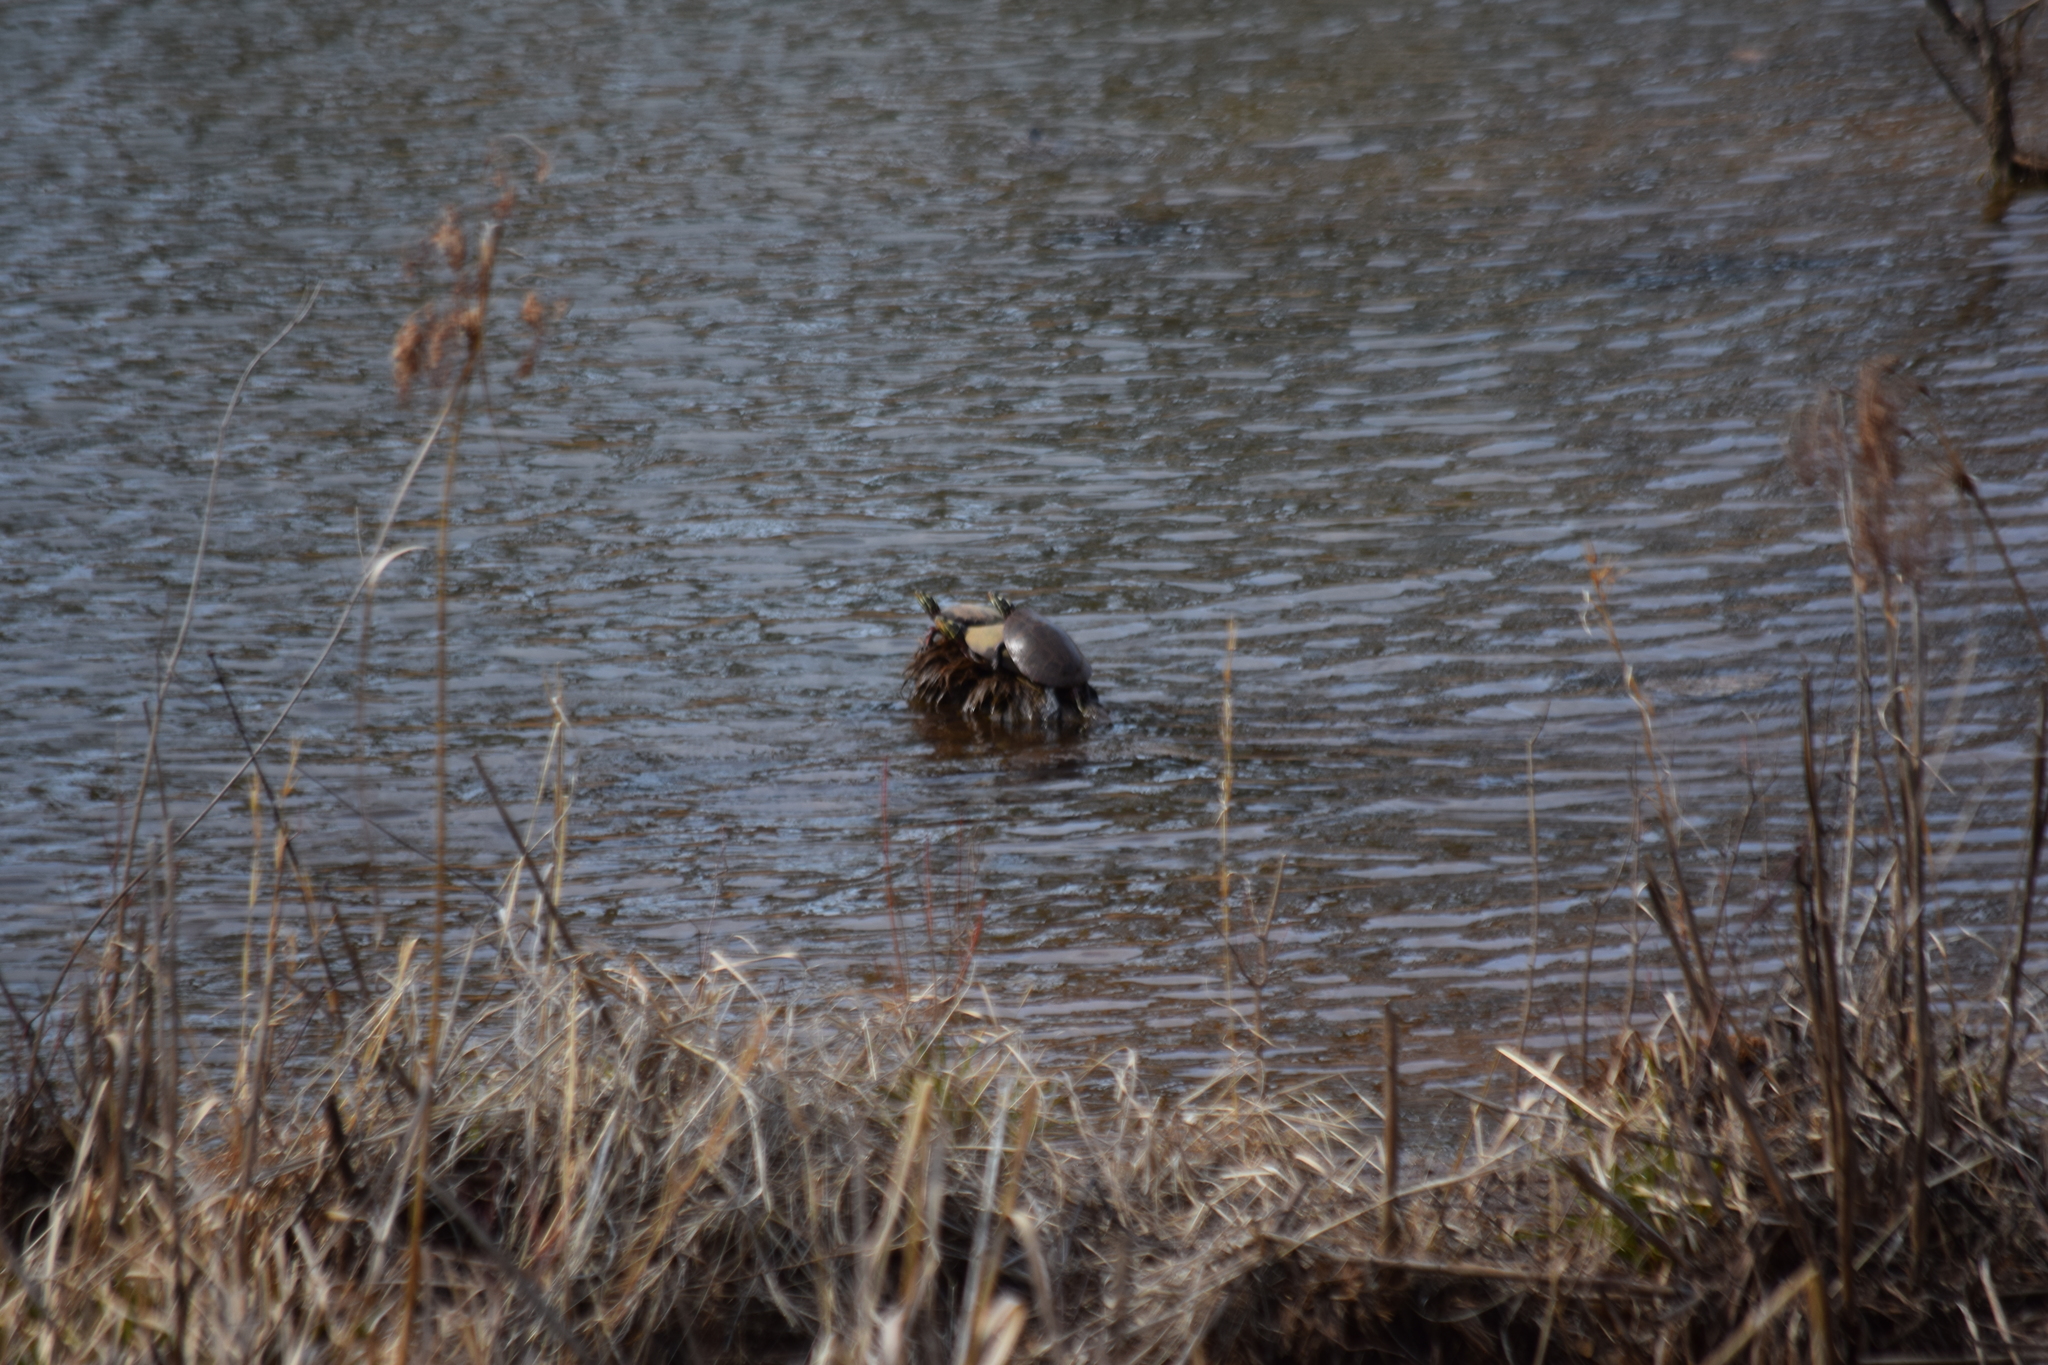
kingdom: Animalia
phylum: Chordata
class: Testudines
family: Emydidae
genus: Chrysemys
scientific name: Chrysemys picta
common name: Painted turtle
